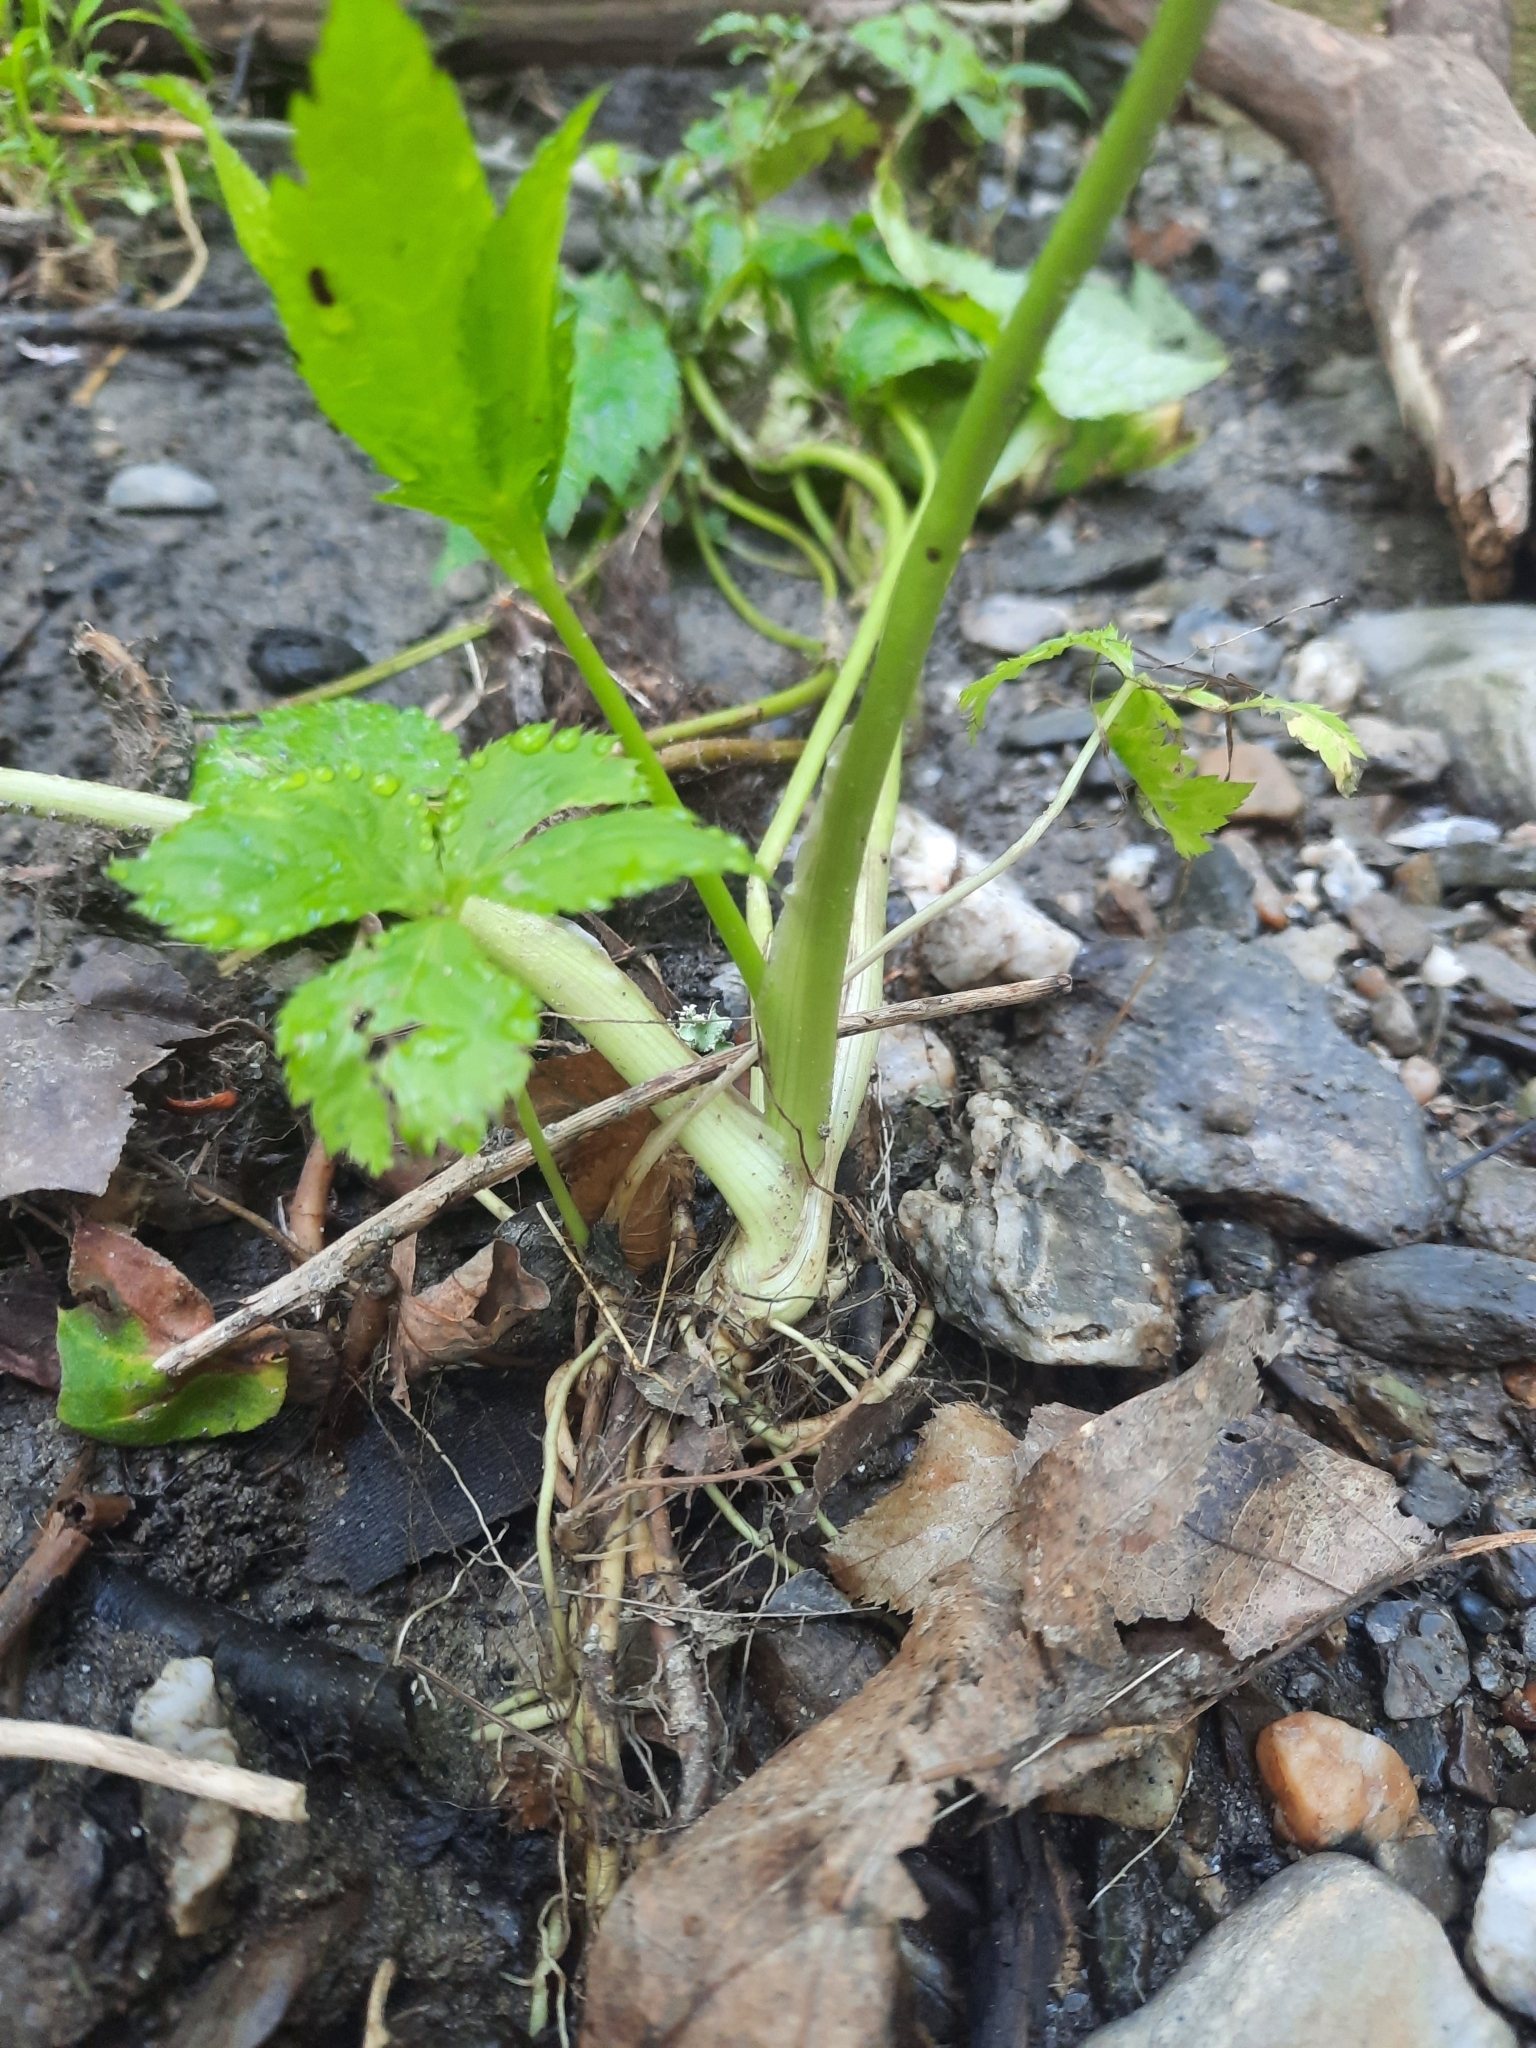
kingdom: Plantae
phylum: Tracheophyta
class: Magnoliopsida
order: Apiales
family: Apiaceae
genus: Cryptotaenia
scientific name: Cryptotaenia canadensis
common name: Honewort
